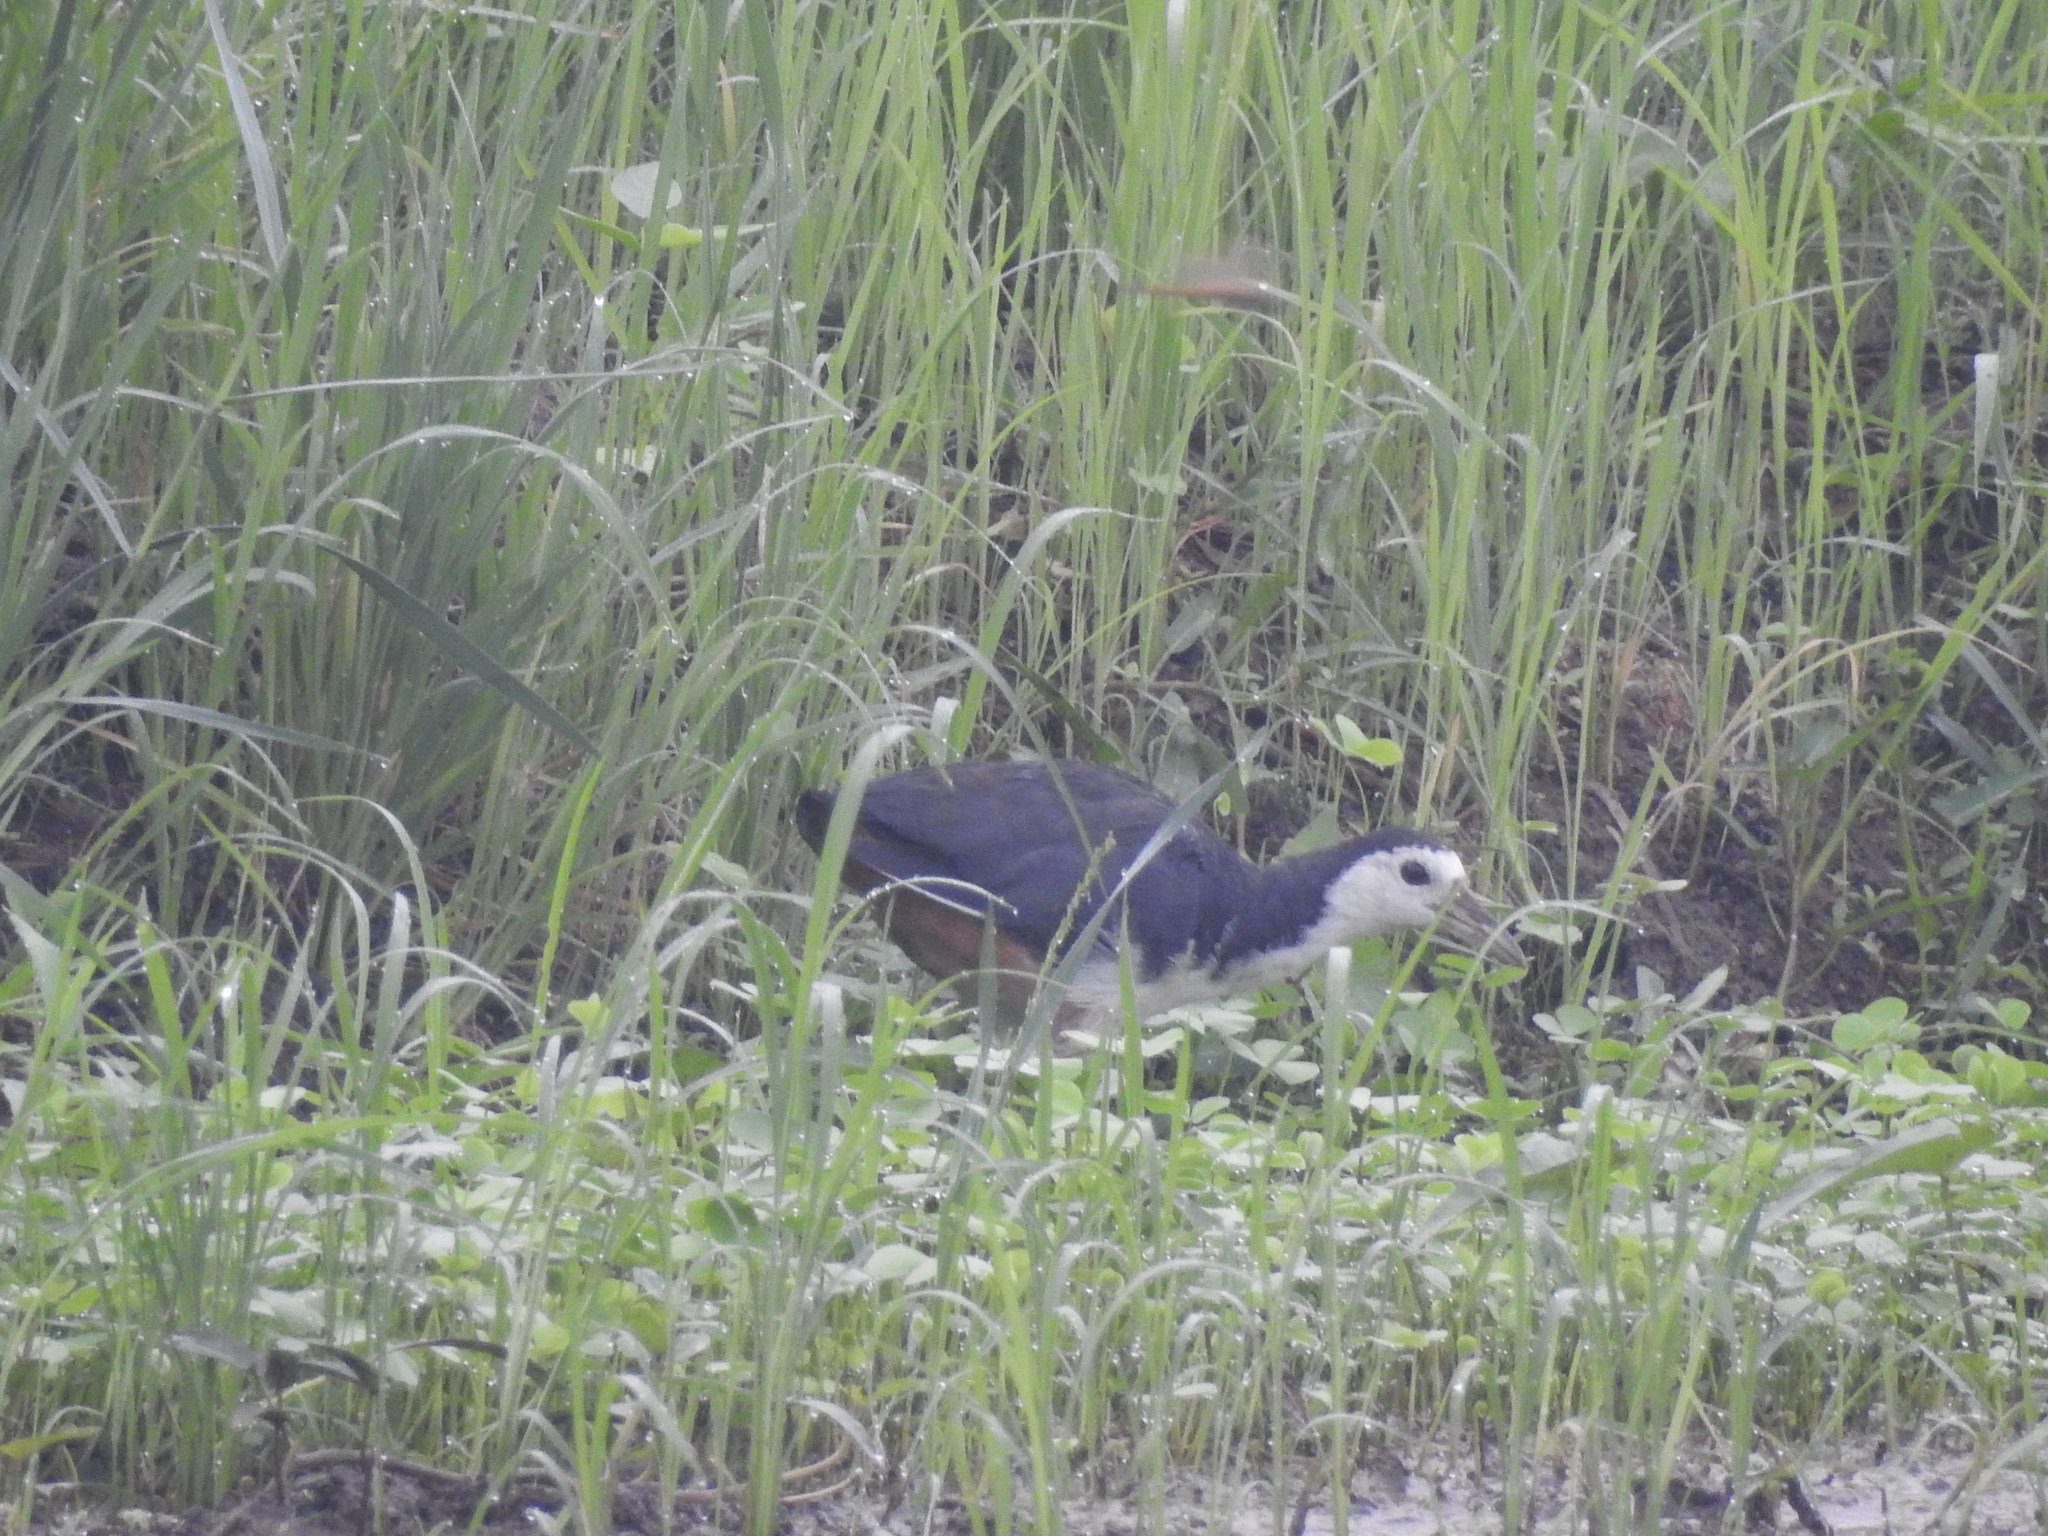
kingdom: Animalia
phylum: Chordata
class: Aves
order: Gruiformes
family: Rallidae
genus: Amaurornis
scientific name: Amaurornis phoenicurus
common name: White-breasted waterhen
